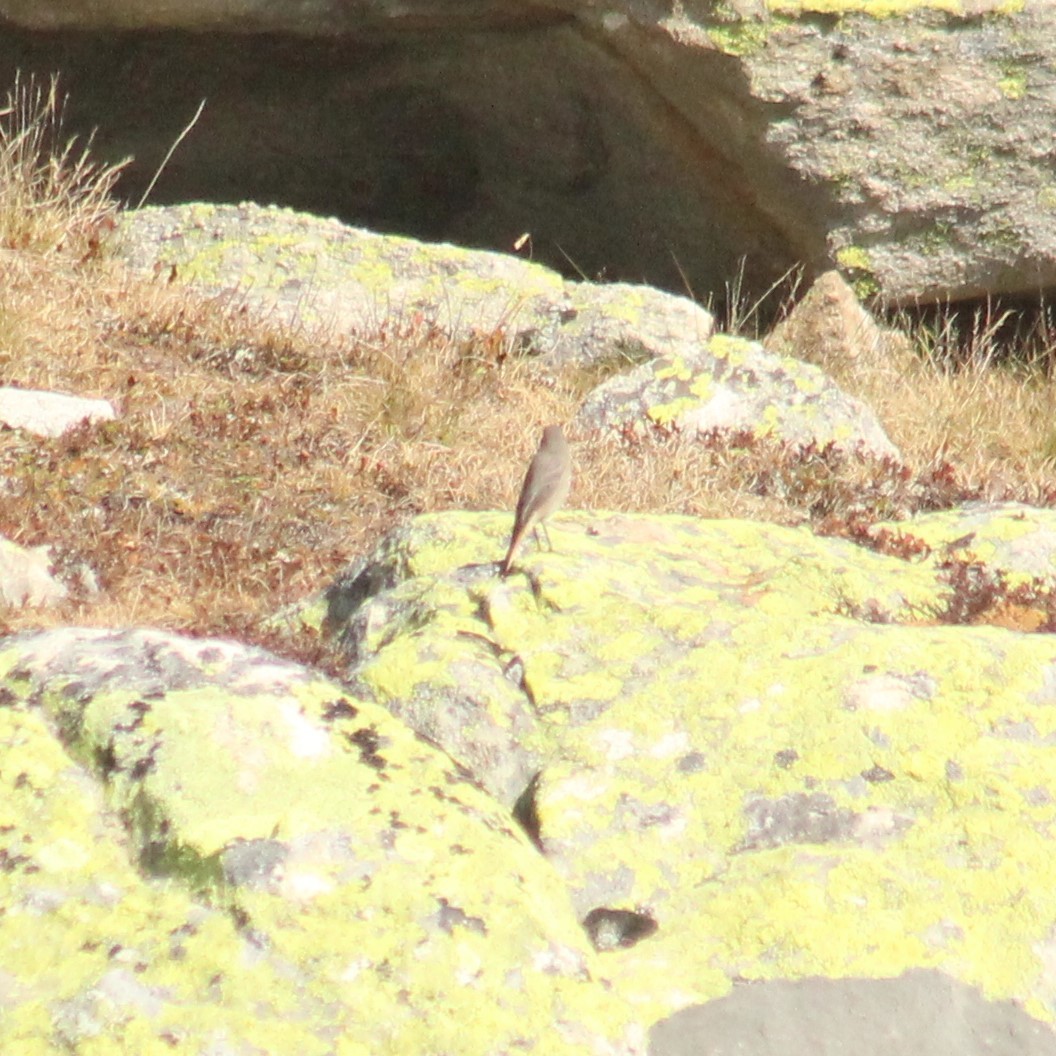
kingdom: Animalia
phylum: Chordata
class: Aves
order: Passeriformes
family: Muscicapidae
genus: Phoenicurus
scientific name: Phoenicurus ochruros
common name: Black redstart
